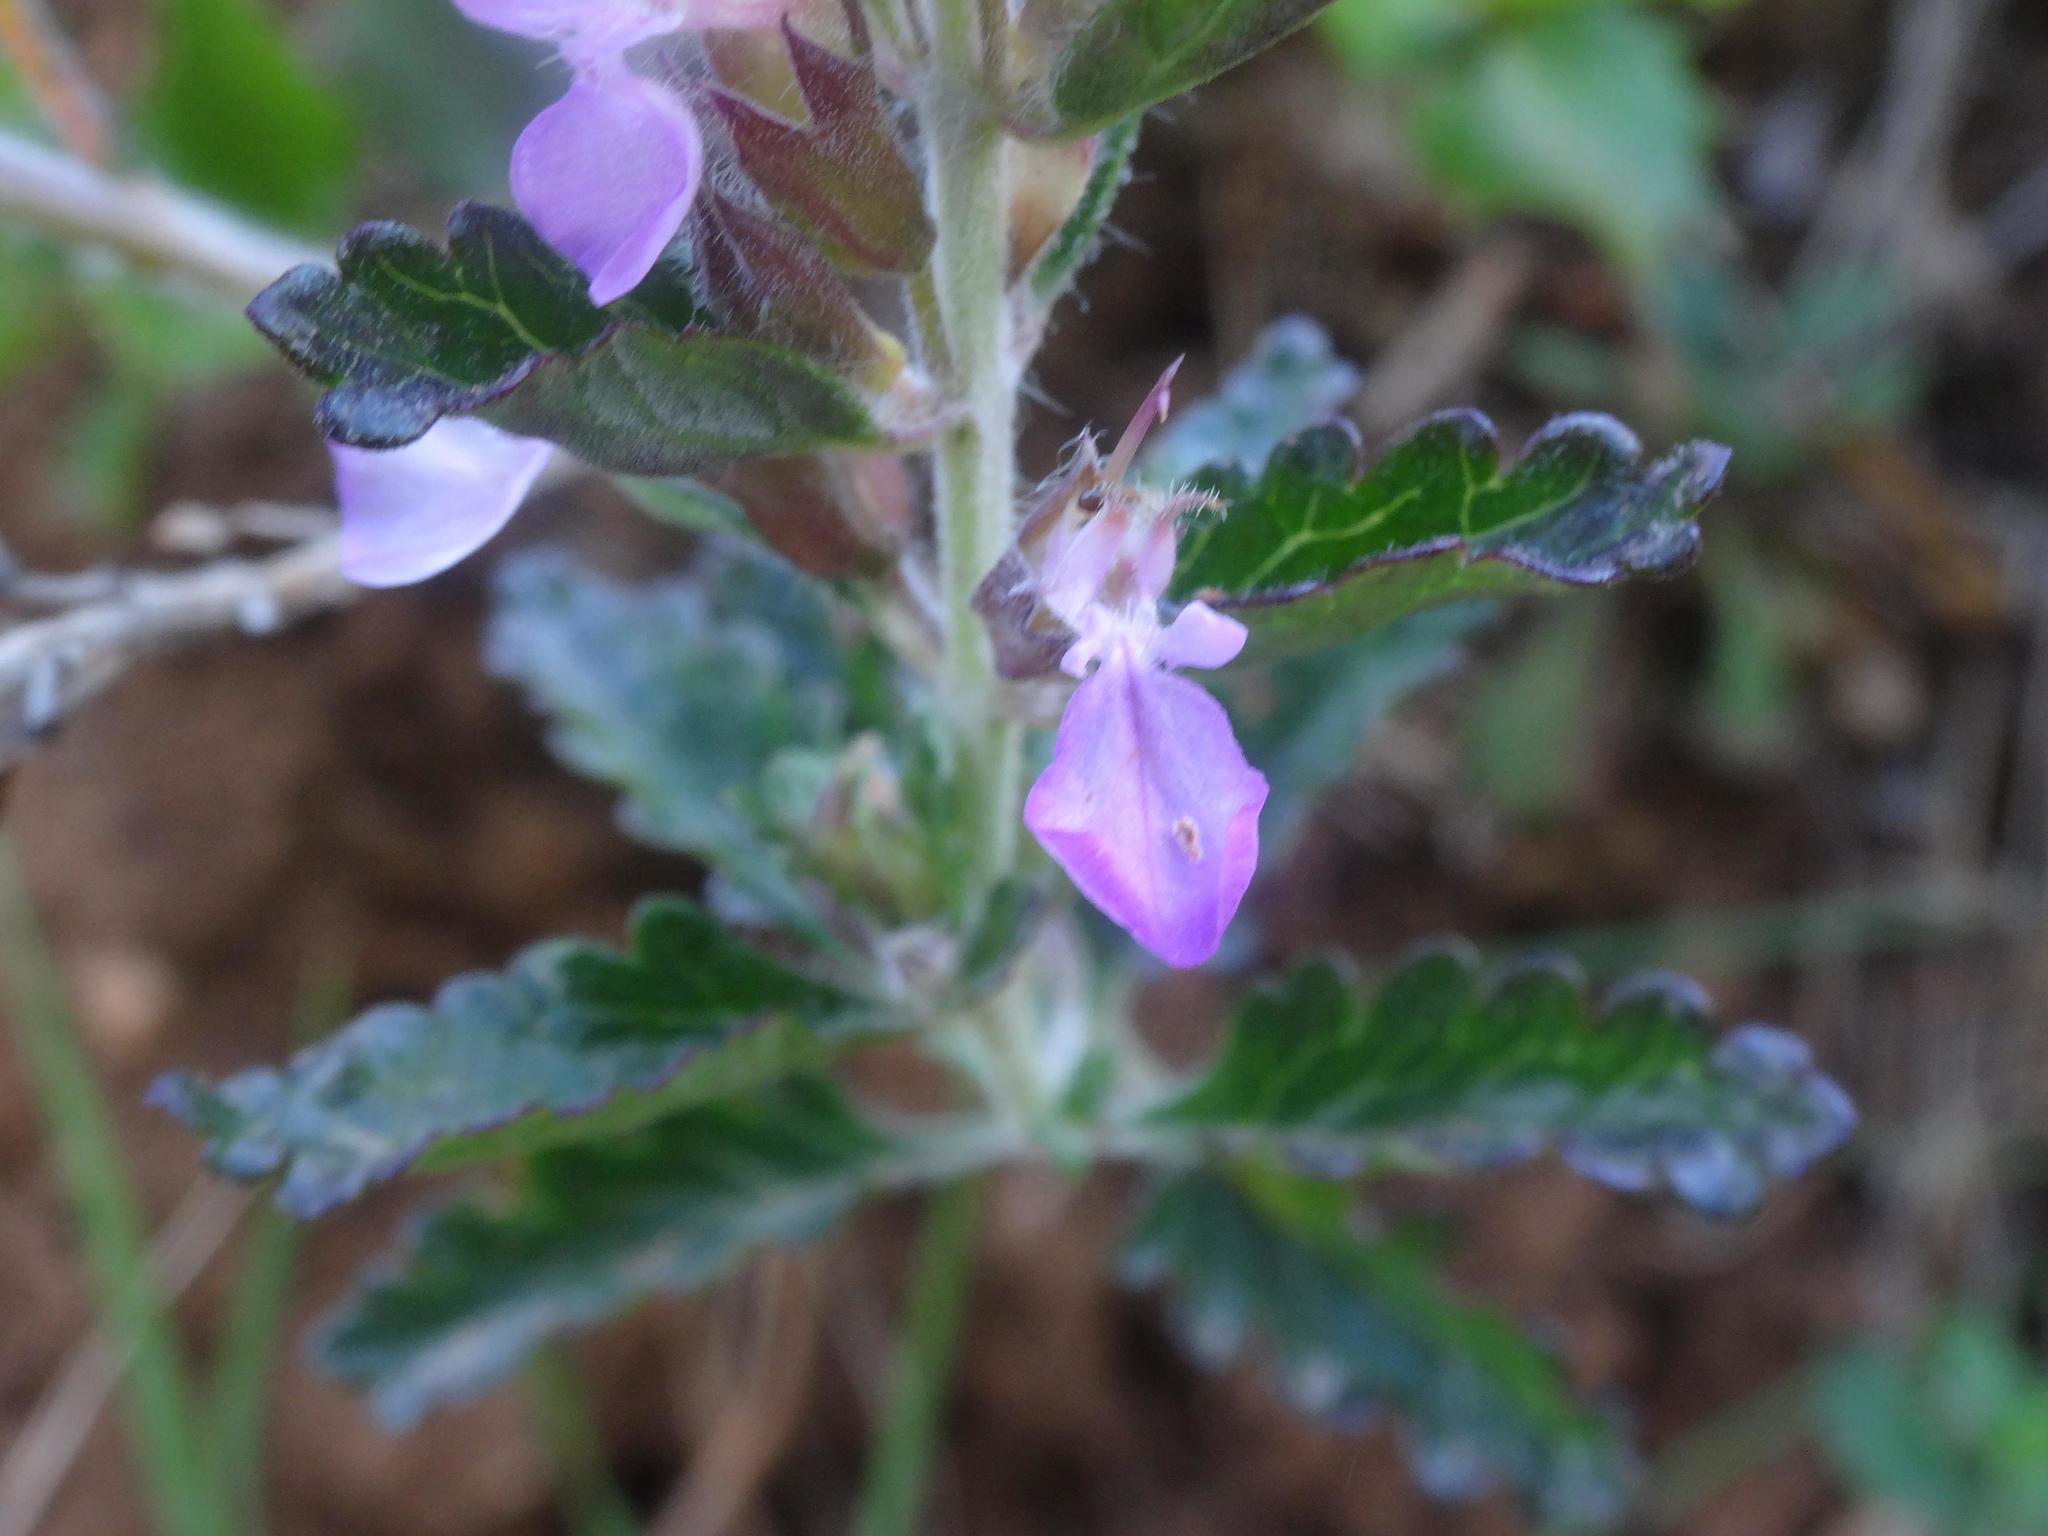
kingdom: Plantae
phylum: Tracheophyta
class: Magnoliopsida
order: Lamiales
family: Lamiaceae
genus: Teucrium
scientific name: Teucrium chamaedrys
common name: Wall germander
